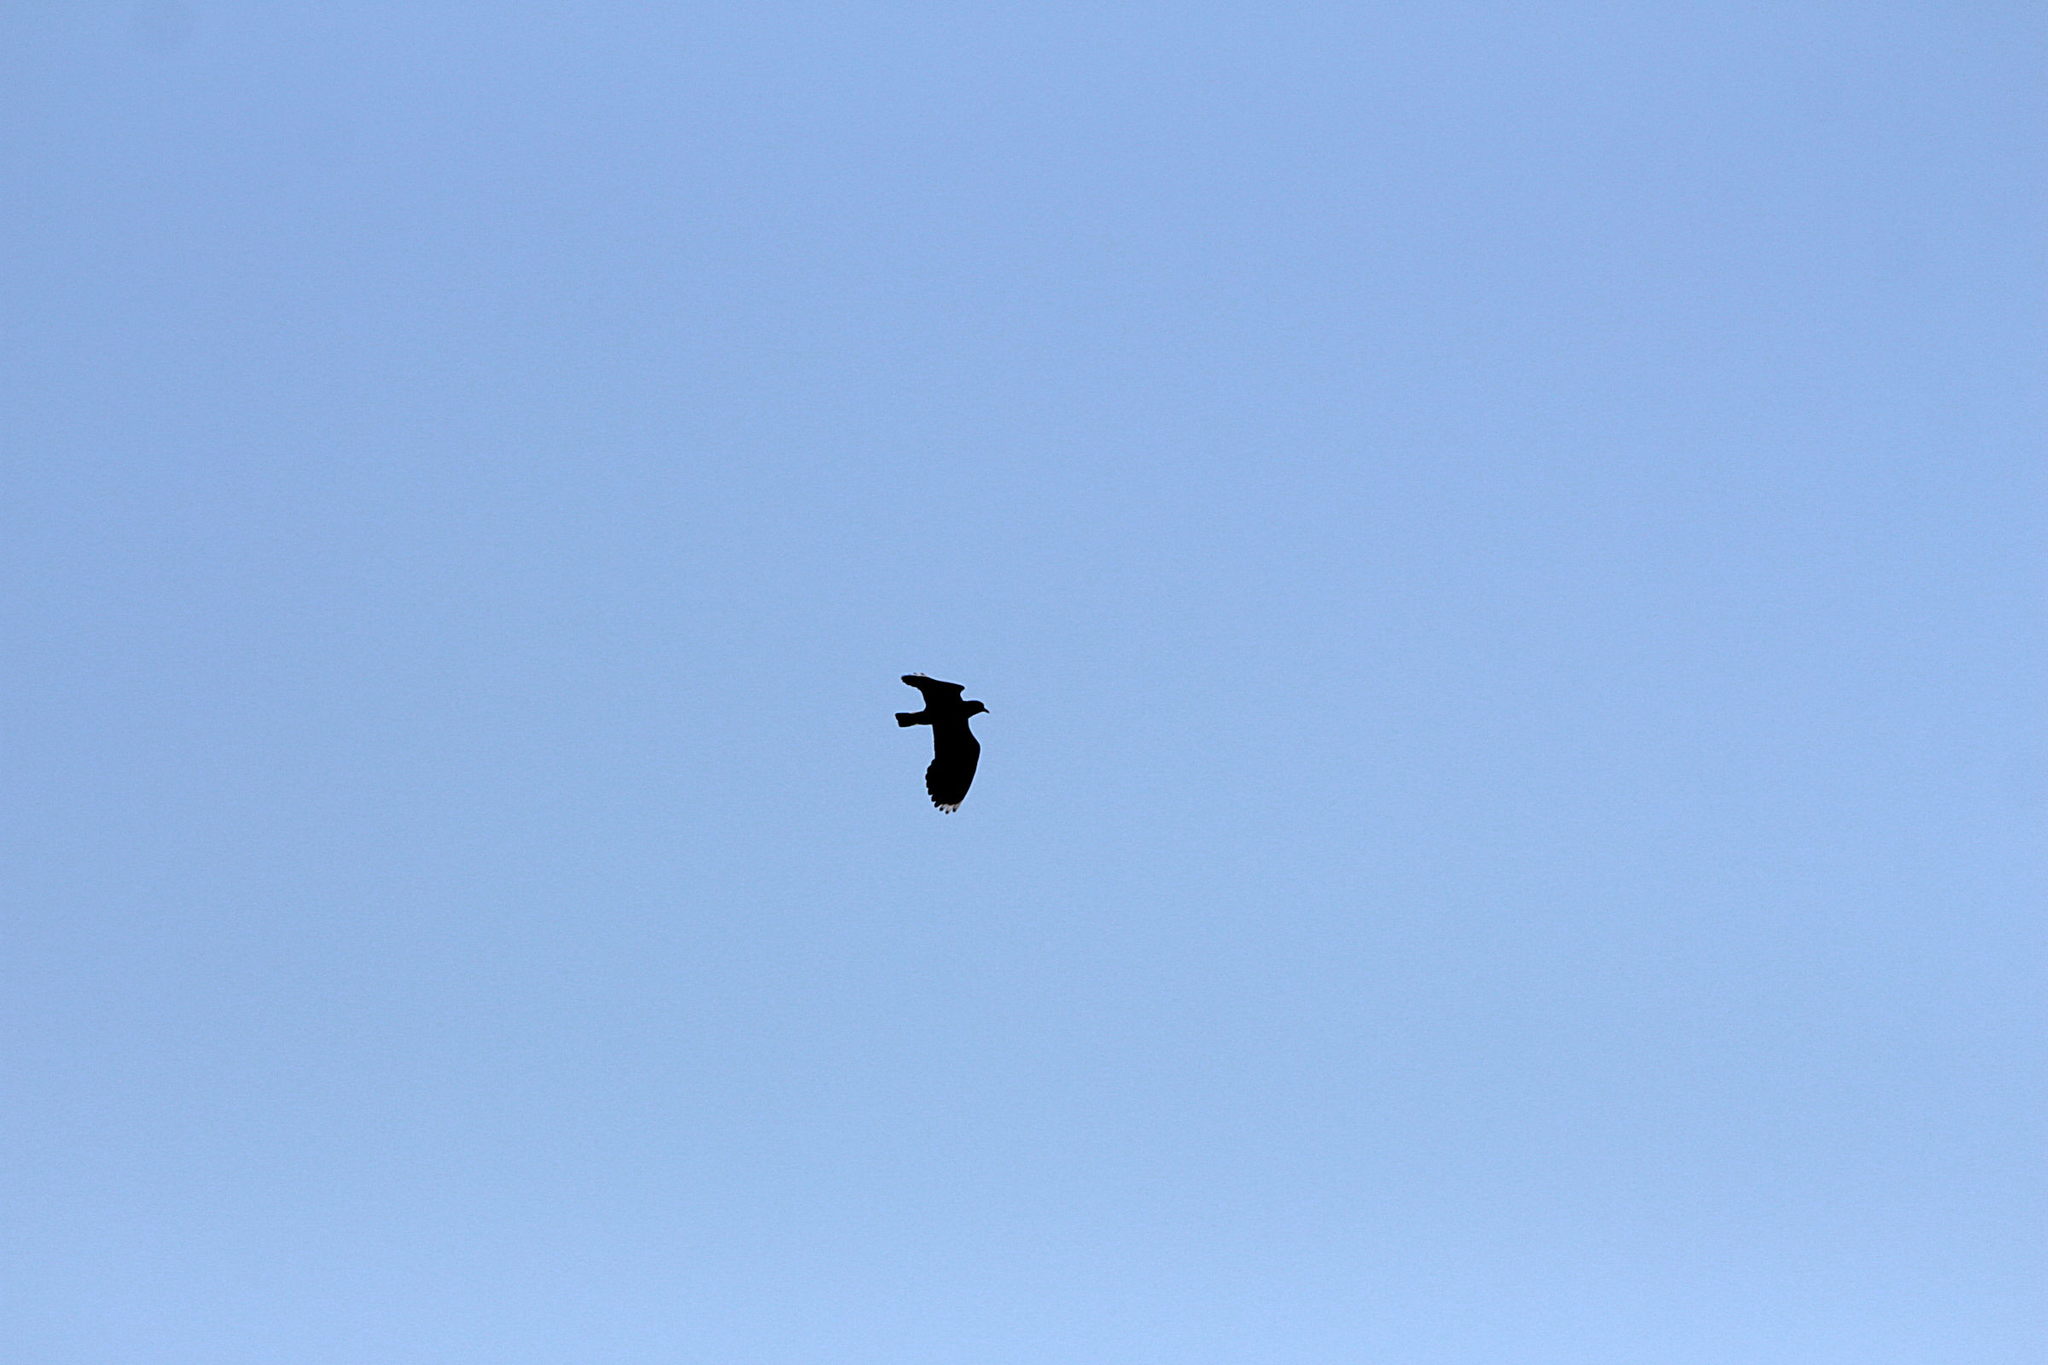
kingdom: Animalia
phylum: Chordata
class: Aves
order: Charadriiformes
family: Charadriidae
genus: Vanellus
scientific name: Vanellus vanellus
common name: Northern lapwing
